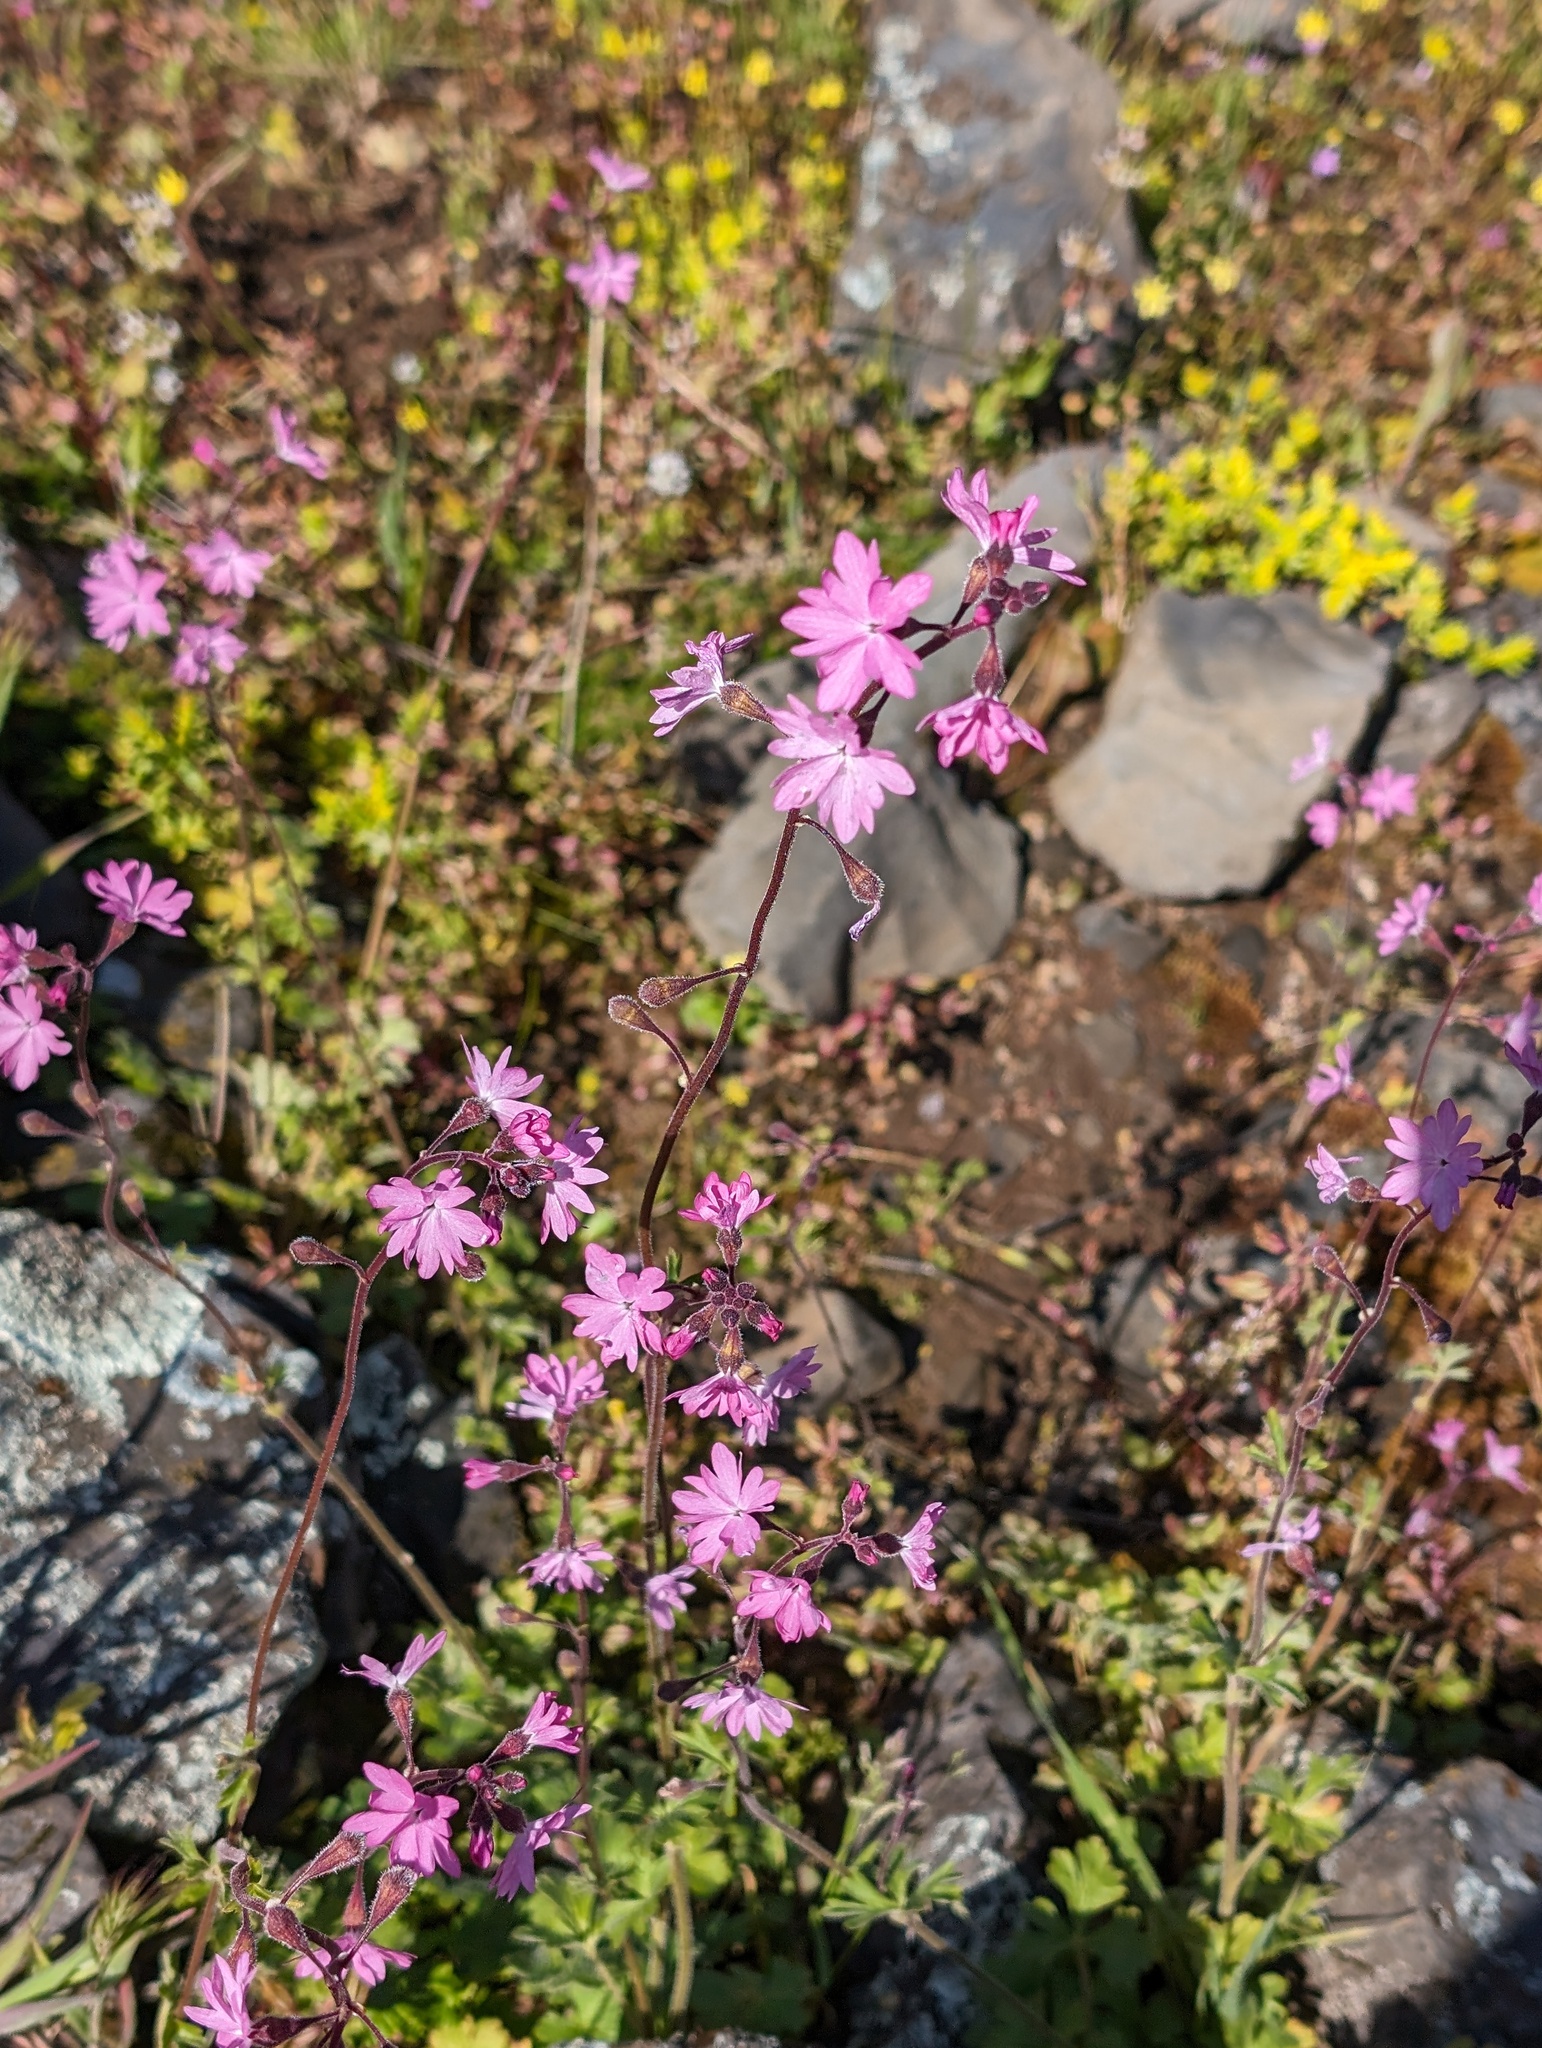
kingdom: Plantae
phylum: Tracheophyta
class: Magnoliopsida
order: Saxifragales
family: Saxifragaceae
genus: Lithophragma
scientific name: Lithophragma trifoliatum
